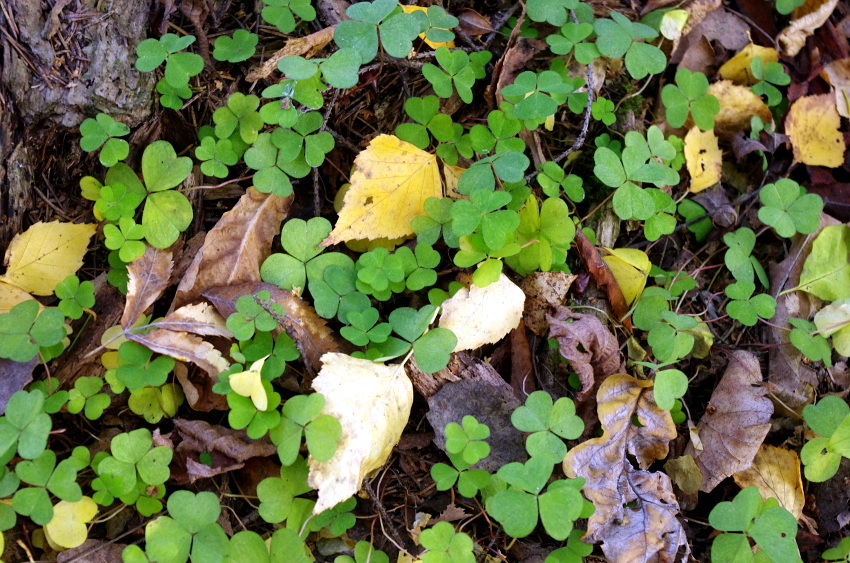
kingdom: Plantae
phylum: Tracheophyta
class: Magnoliopsida
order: Oxalidales
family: Oxalidaceae
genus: Oxalis
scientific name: Oxalis acetosella
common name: Wood-sorrel
